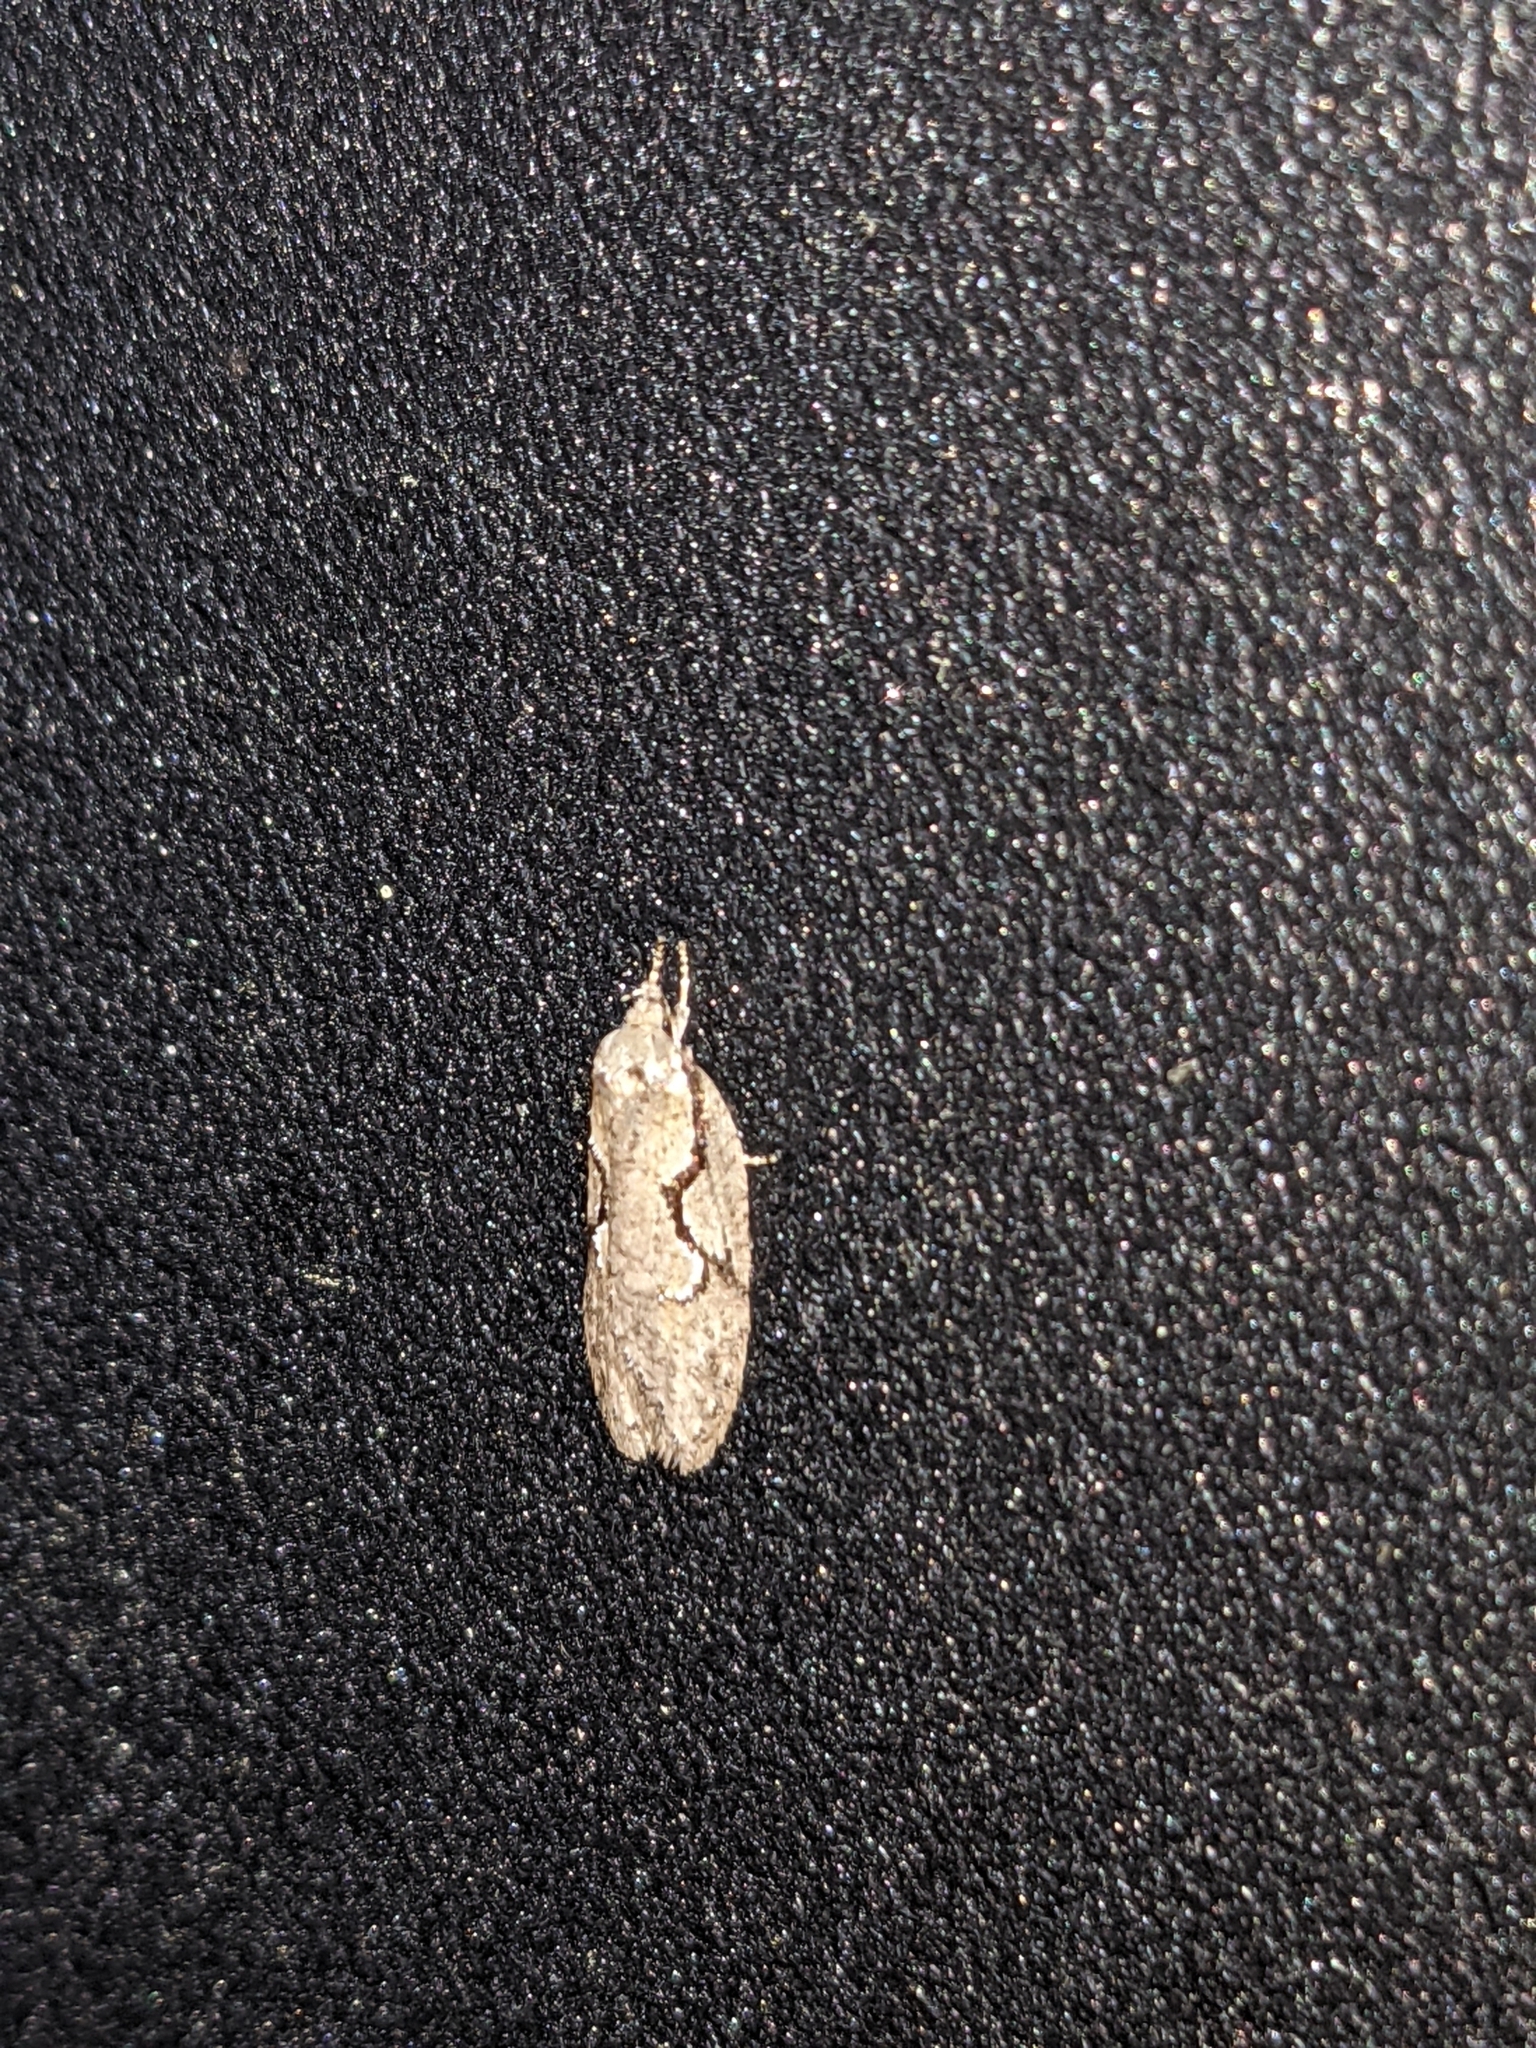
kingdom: Animalia
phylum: Arthropoda
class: Insecta
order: Lepidoptera
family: Depressariidae
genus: Semioscopis
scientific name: Semioscopis packardella
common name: Packard's concealer moth
